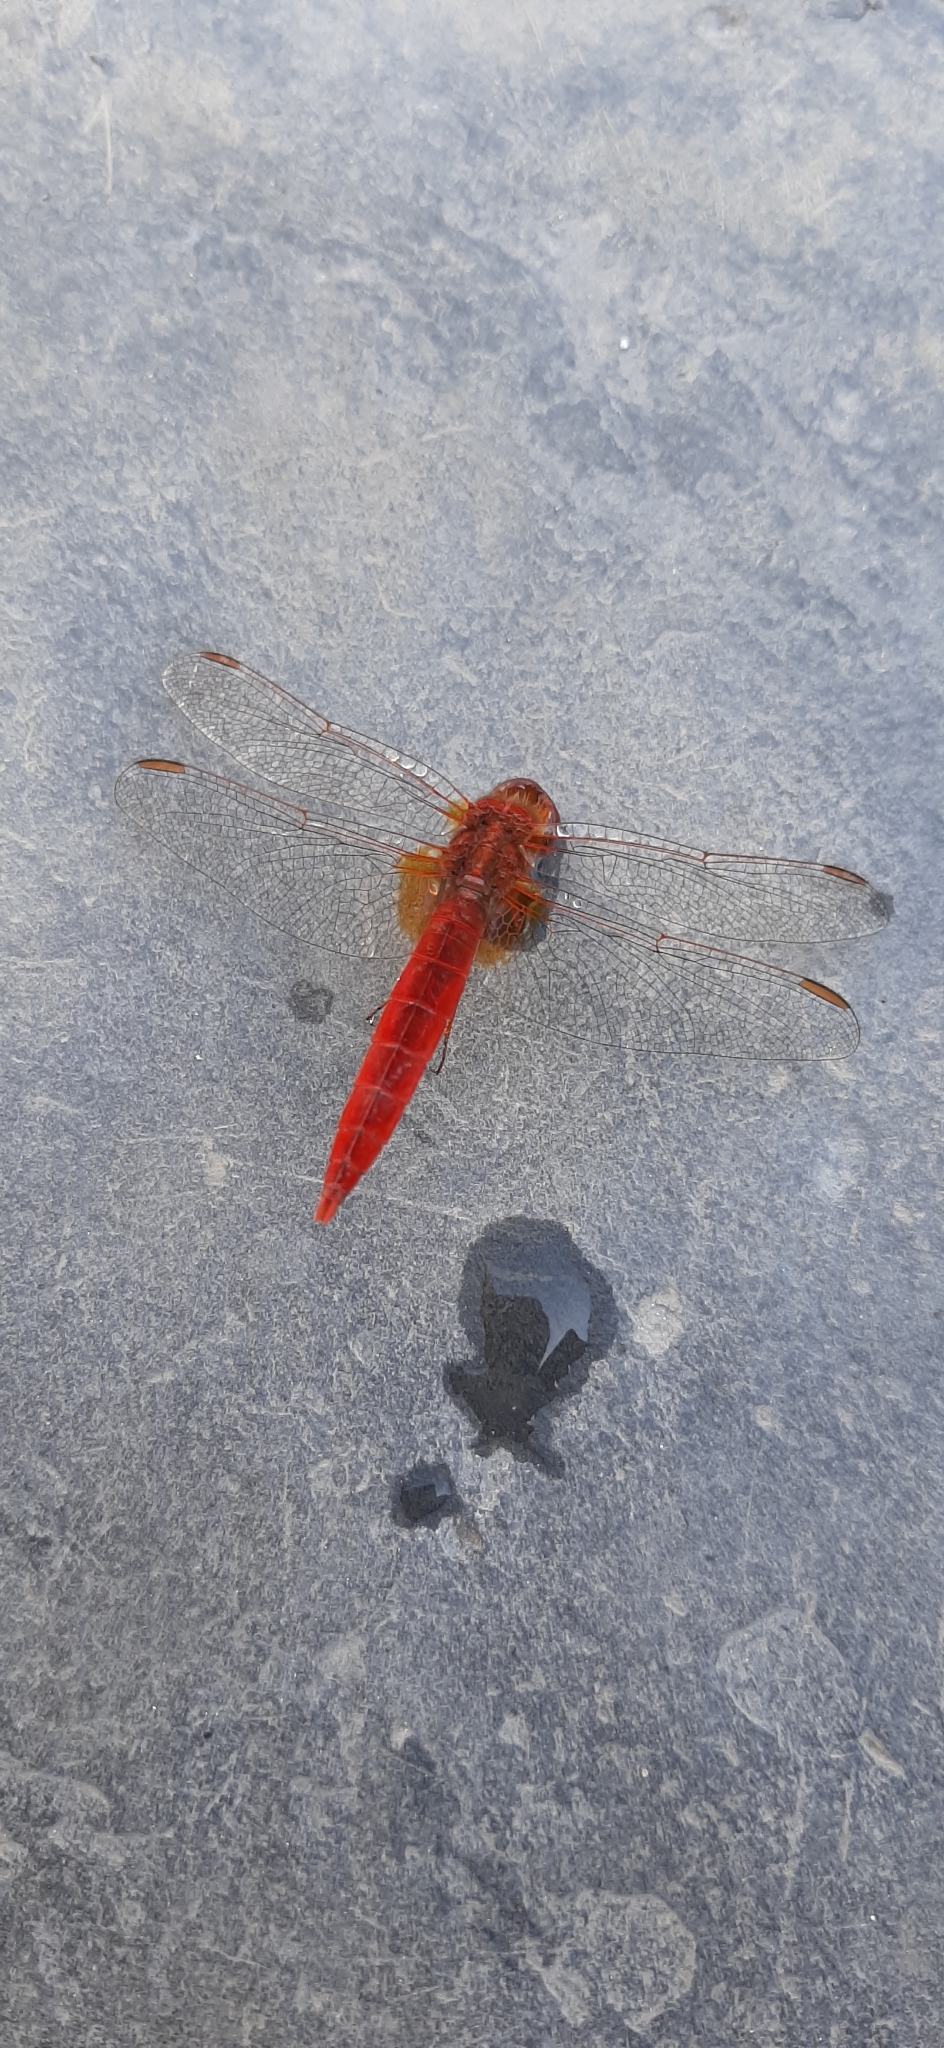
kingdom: Animalia
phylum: Arthropoda
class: Insecta
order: Odonata
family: Libellulidae
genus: Crocothemis
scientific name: Crocothemis erythraea
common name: Scarlet dragonfly
